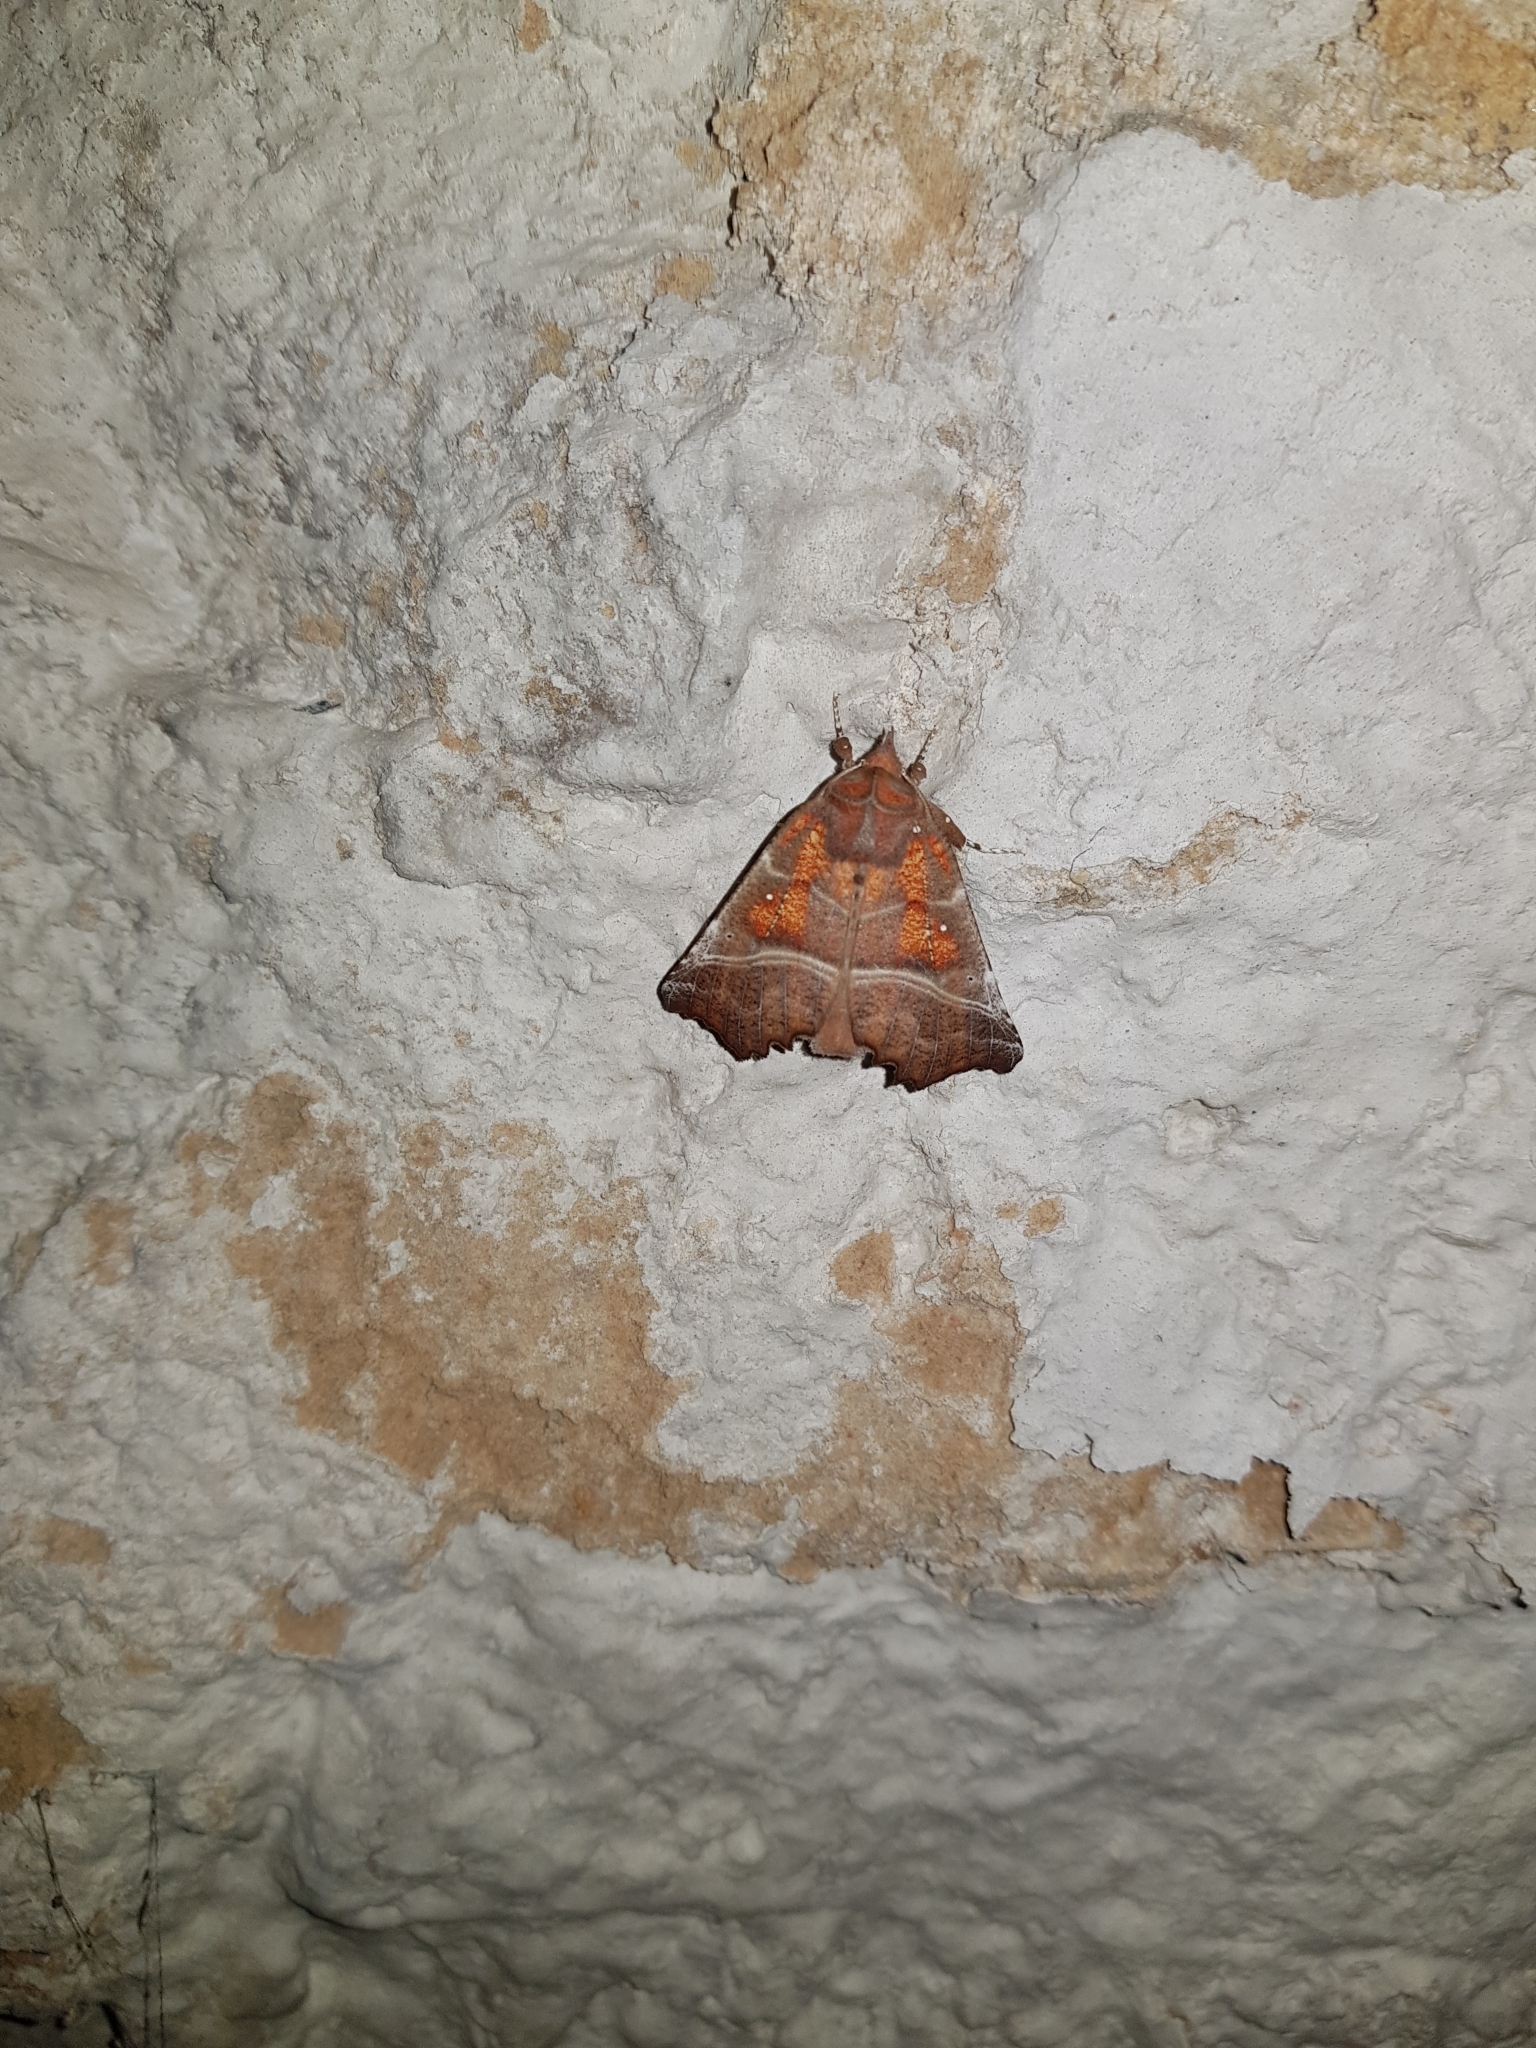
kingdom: Animalia
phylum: Arthropoda
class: Insecta
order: Lepidoptera
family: Erebidae
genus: Scoliopteryx
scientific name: Scoliopteryx libatrix
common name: Herald
